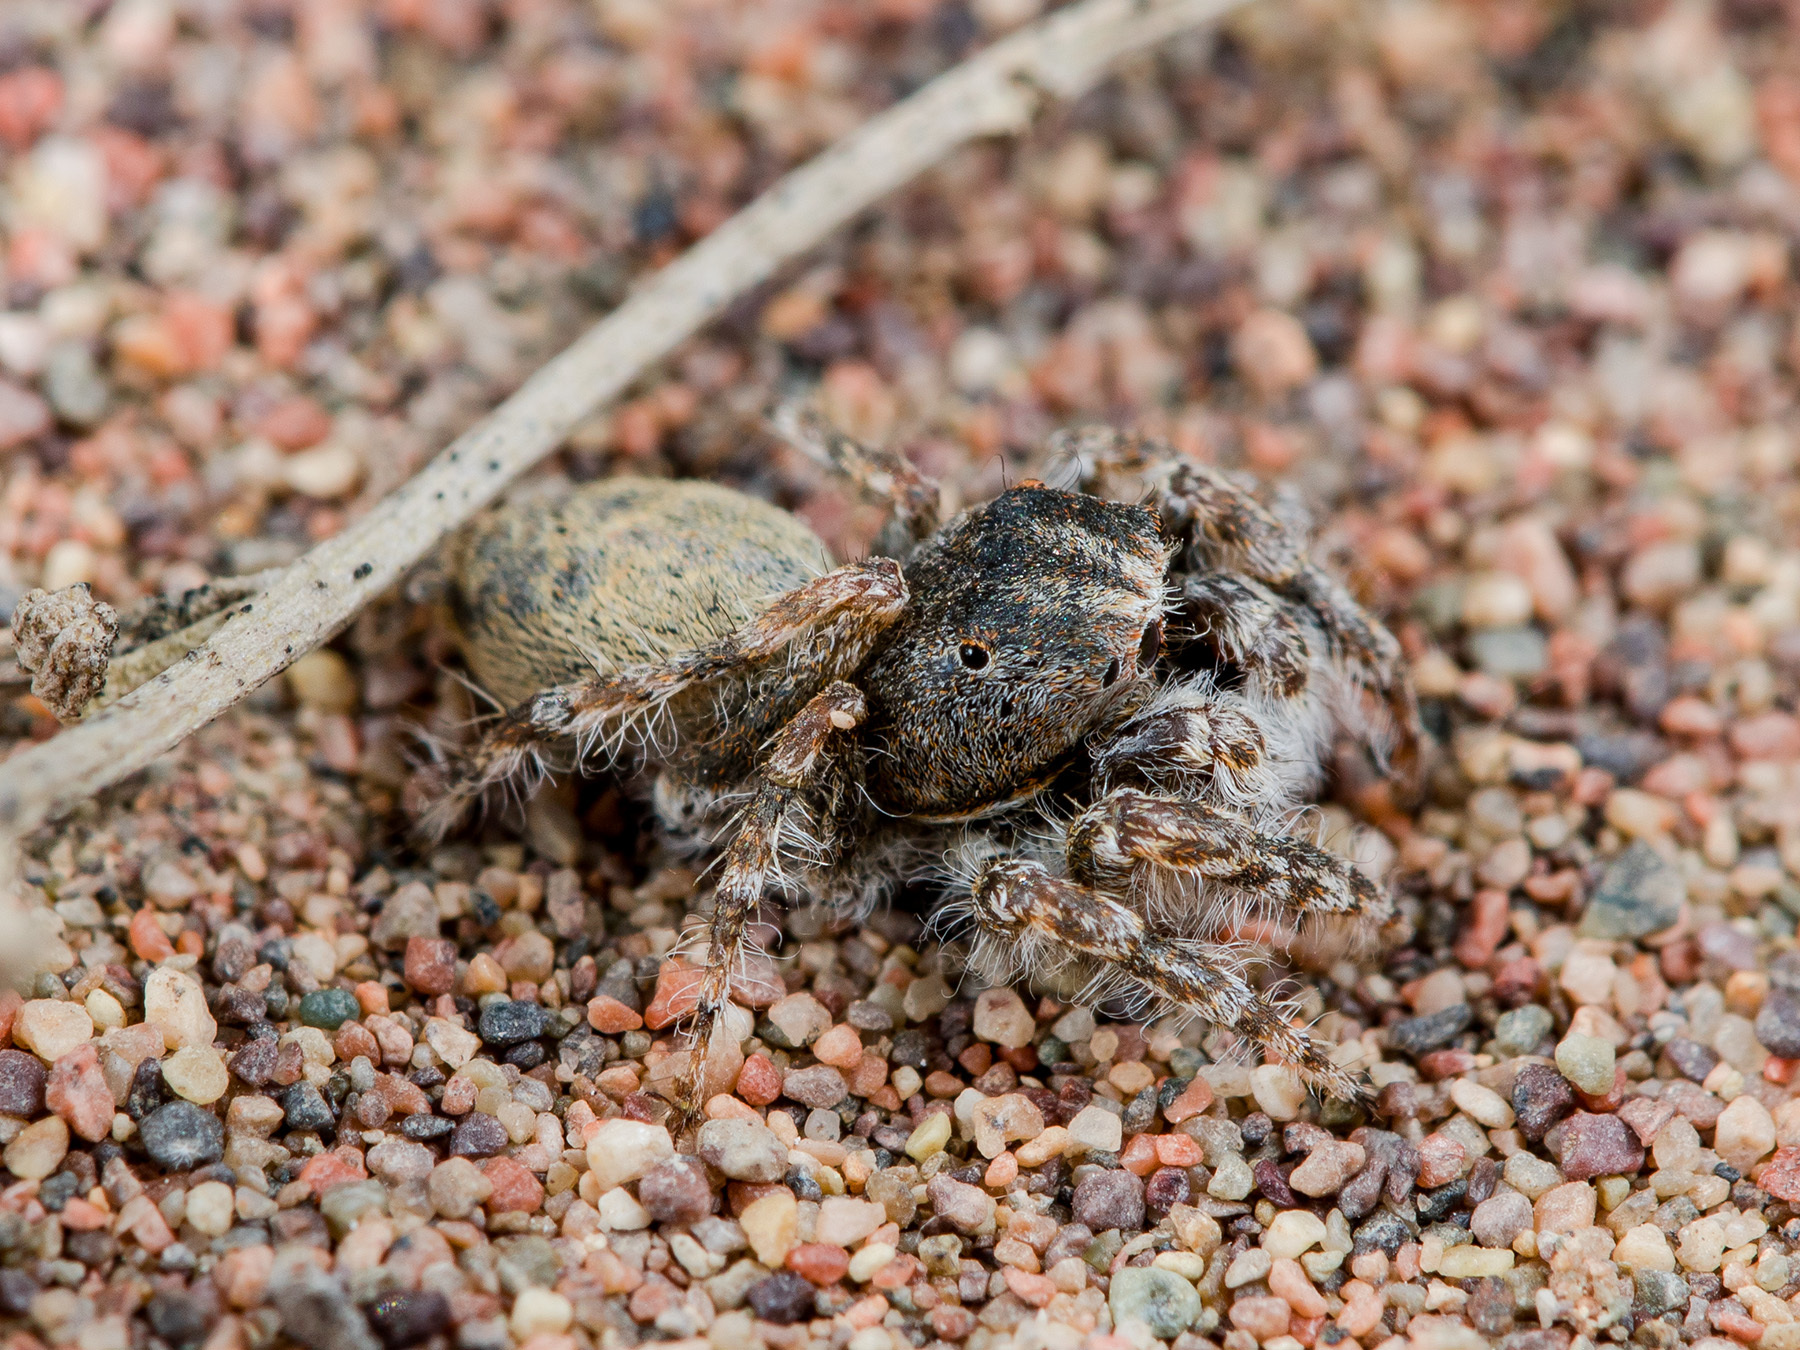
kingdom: Animalia
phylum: Arthropoda
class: Arachnida
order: Araneae
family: Salticidae
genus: Yllenus
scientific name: Yllenus uiguricus
